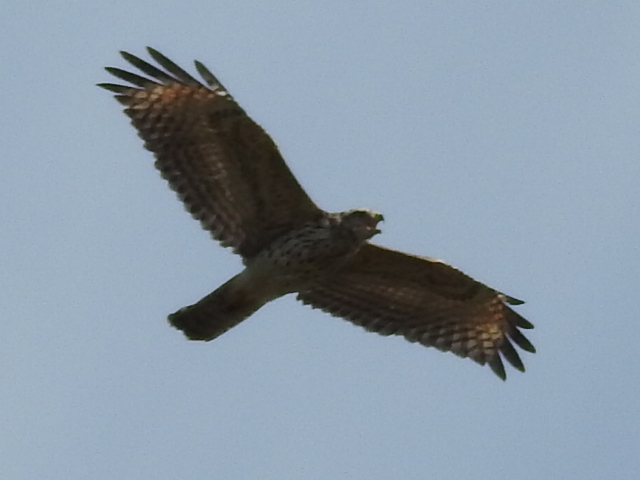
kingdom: Animalia
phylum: Chordata
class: Aves
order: Accipitriformes
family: Accipitridae
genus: Buteo
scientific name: Buteo lineatus
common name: Red-shouldered hawk
